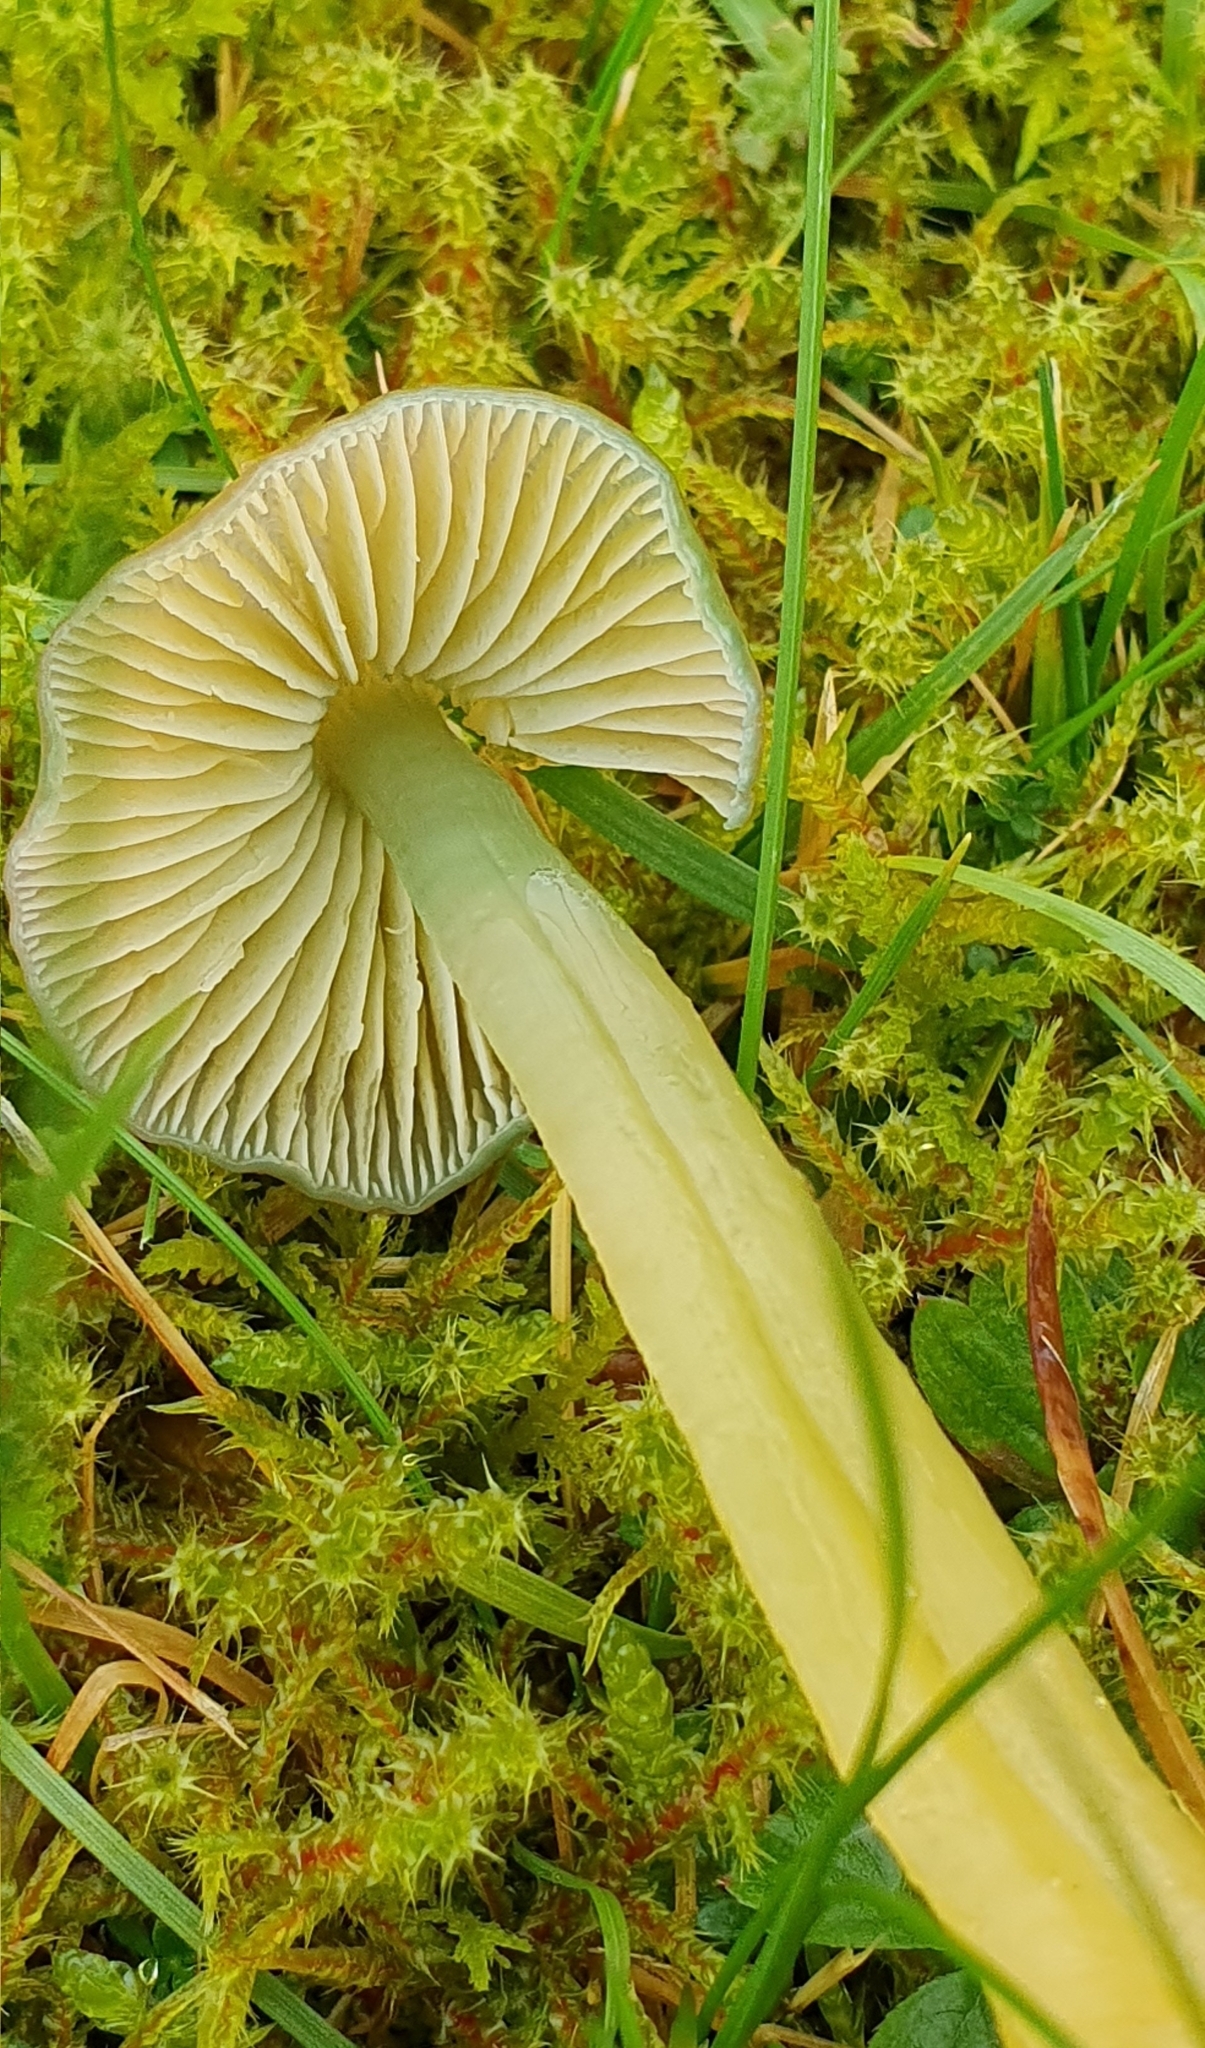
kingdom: Fungi
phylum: Basidiomycota
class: Agaricomycetes
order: Agaricales
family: Hygrophoraceae
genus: Gliophorus
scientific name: Gliophorus psittacinus
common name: Parrot wax-cap
